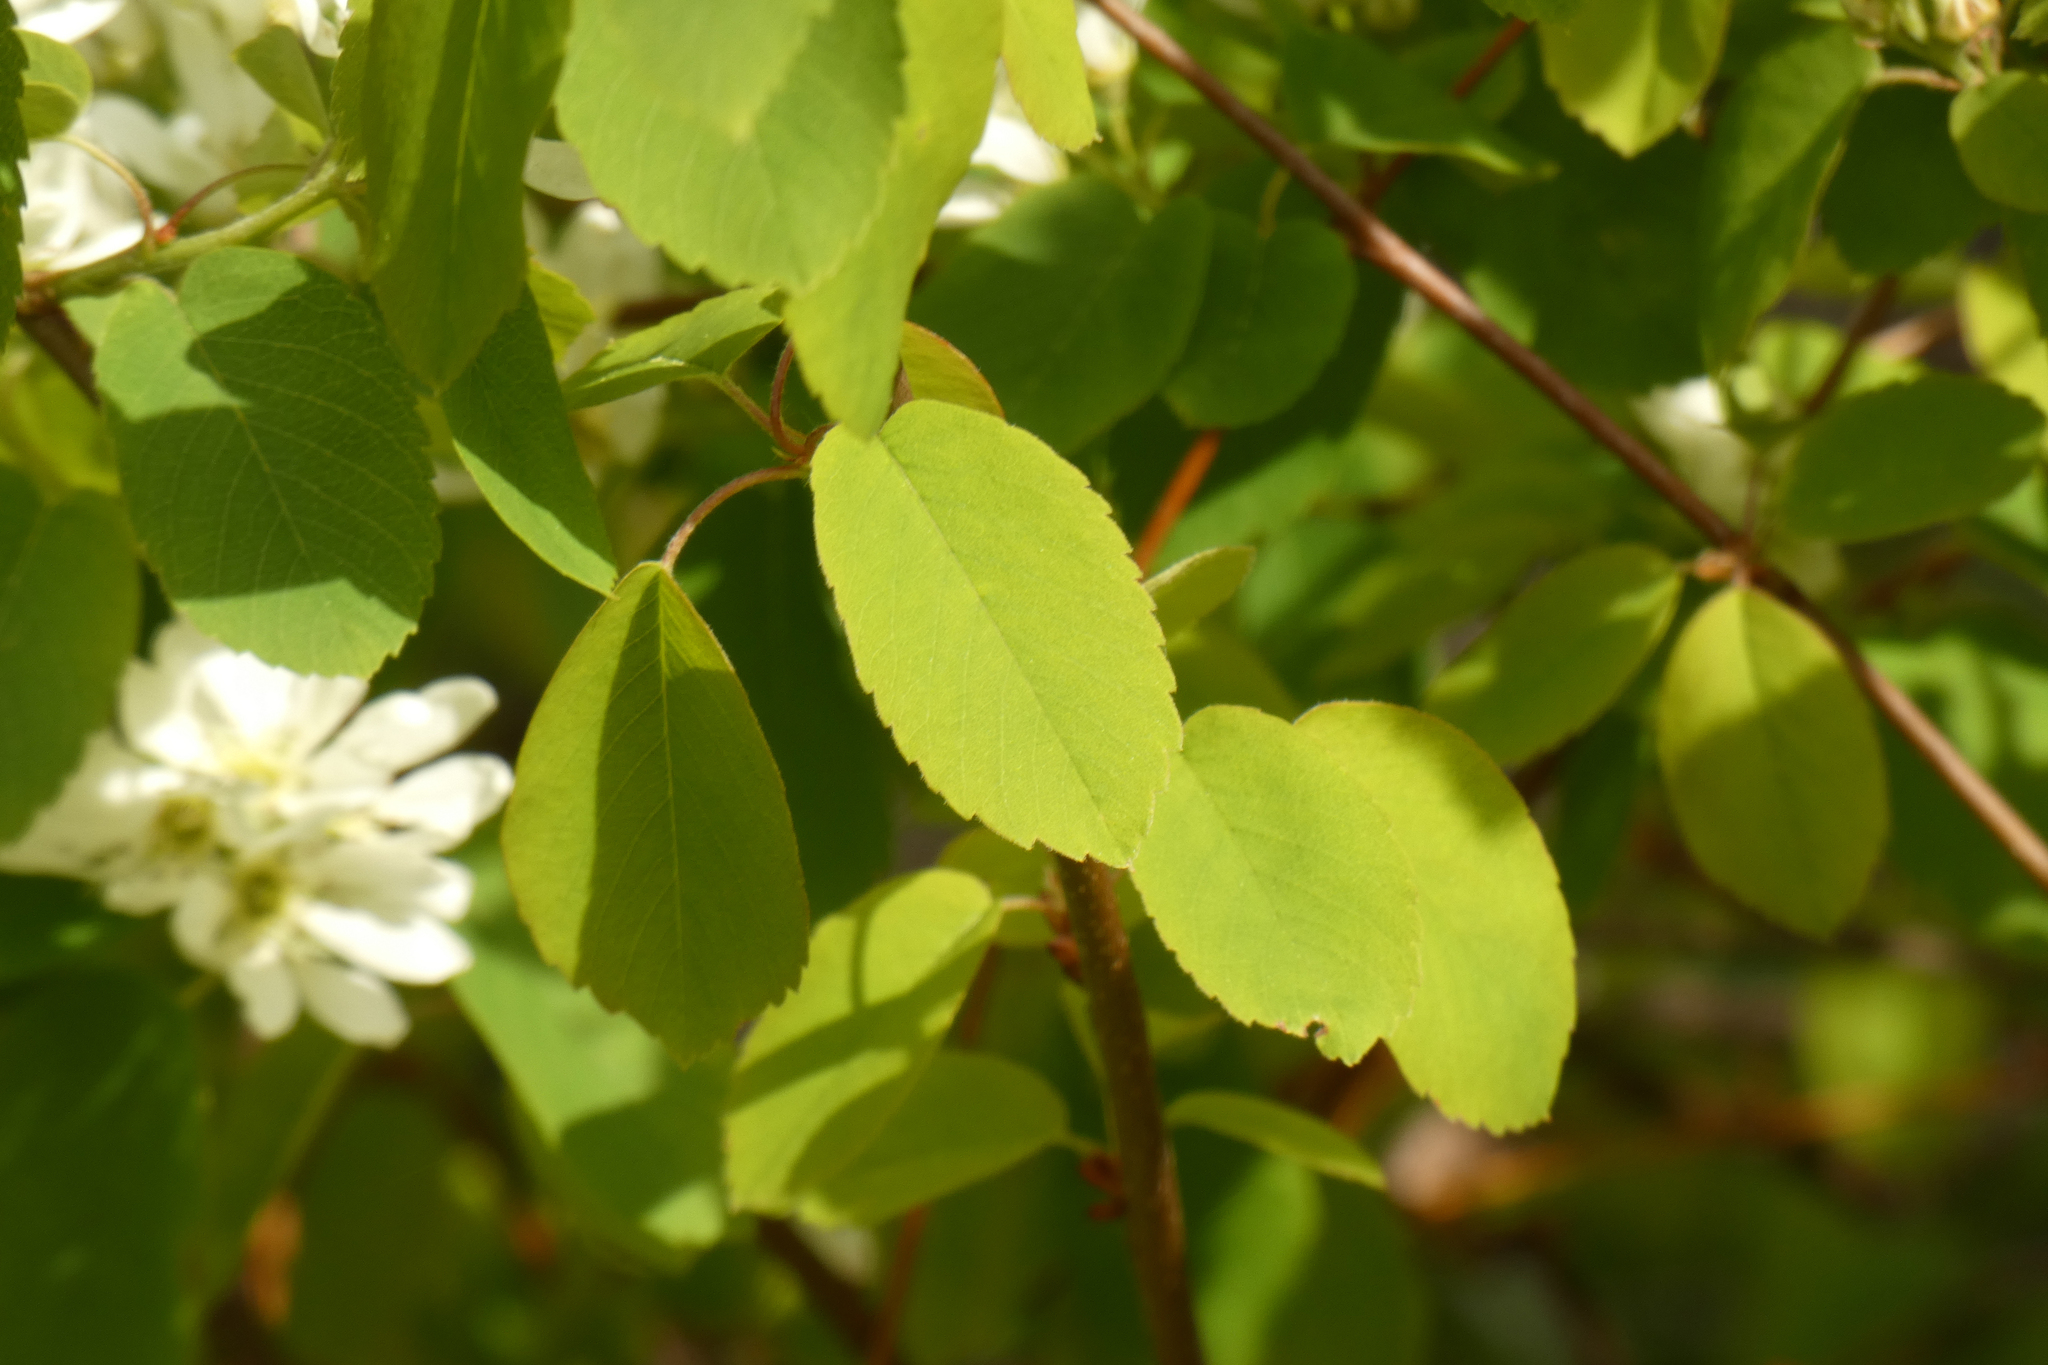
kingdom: Plantae
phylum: Tracheophyta
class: Magnoliopsida
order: Rosales
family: Rosaceae
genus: Amelanchier
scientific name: Amelanchier alnifolia
